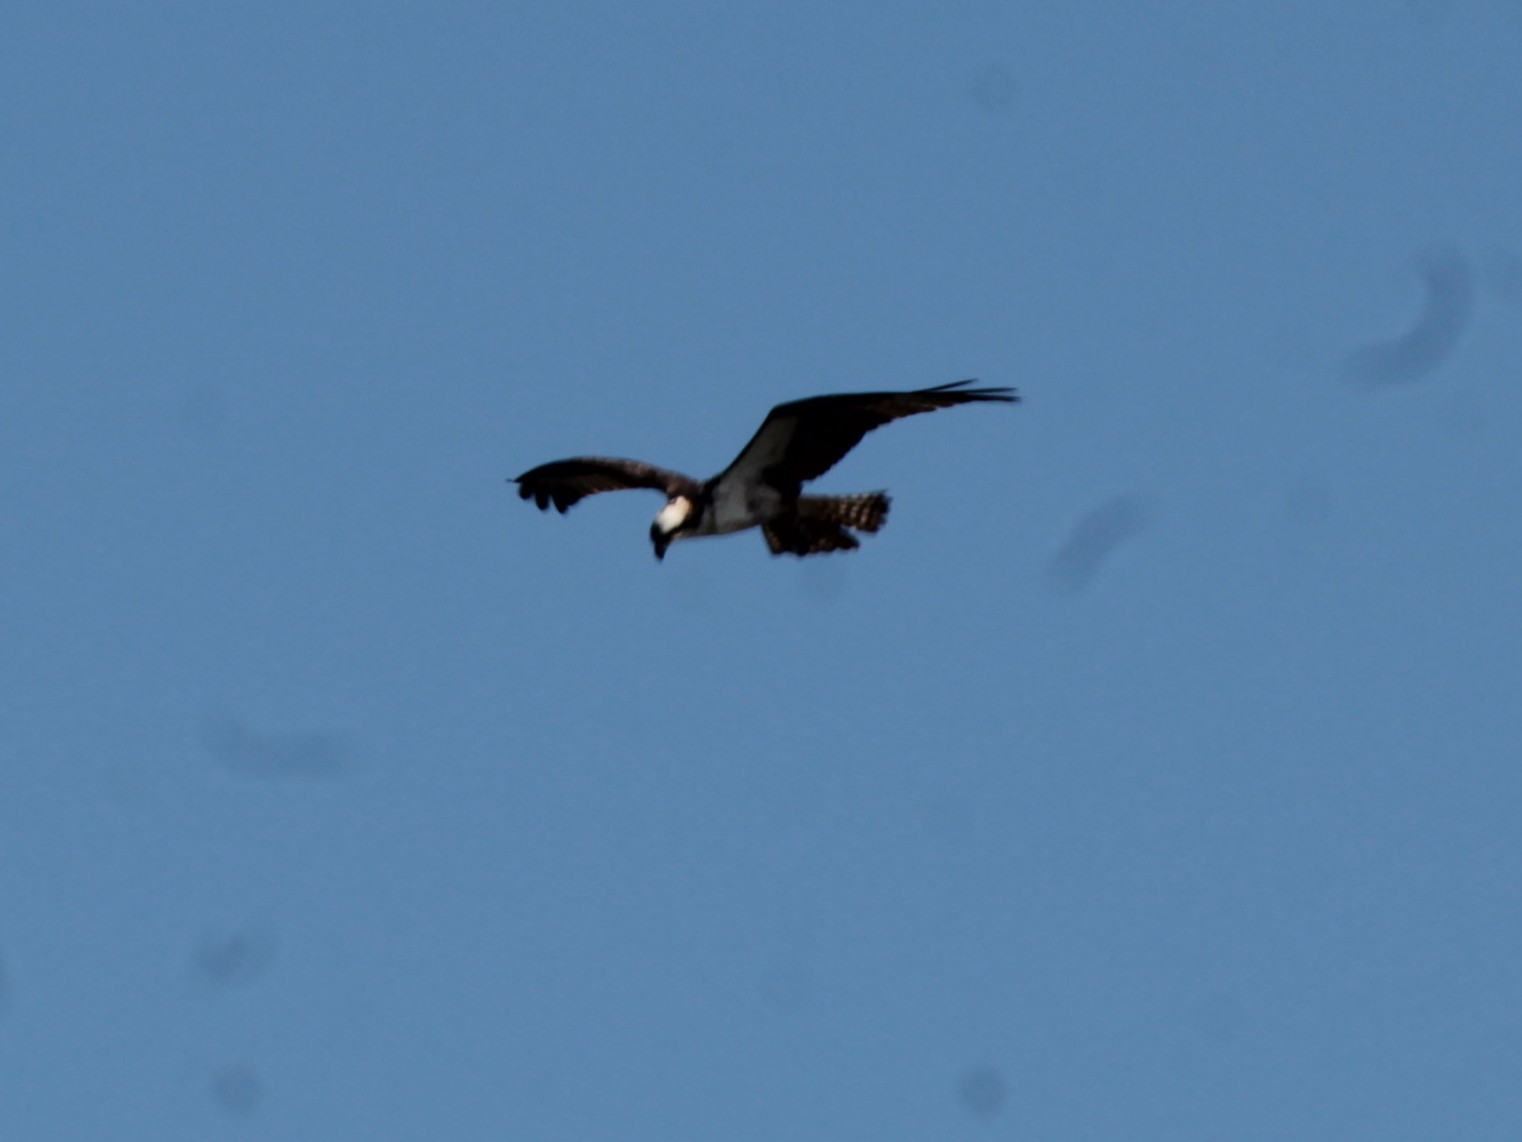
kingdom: Animalia
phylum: Chordata
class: Aves
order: Accipitriformes
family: Pandionidae
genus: Pandion
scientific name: Pandion haliaetus
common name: Osprey
